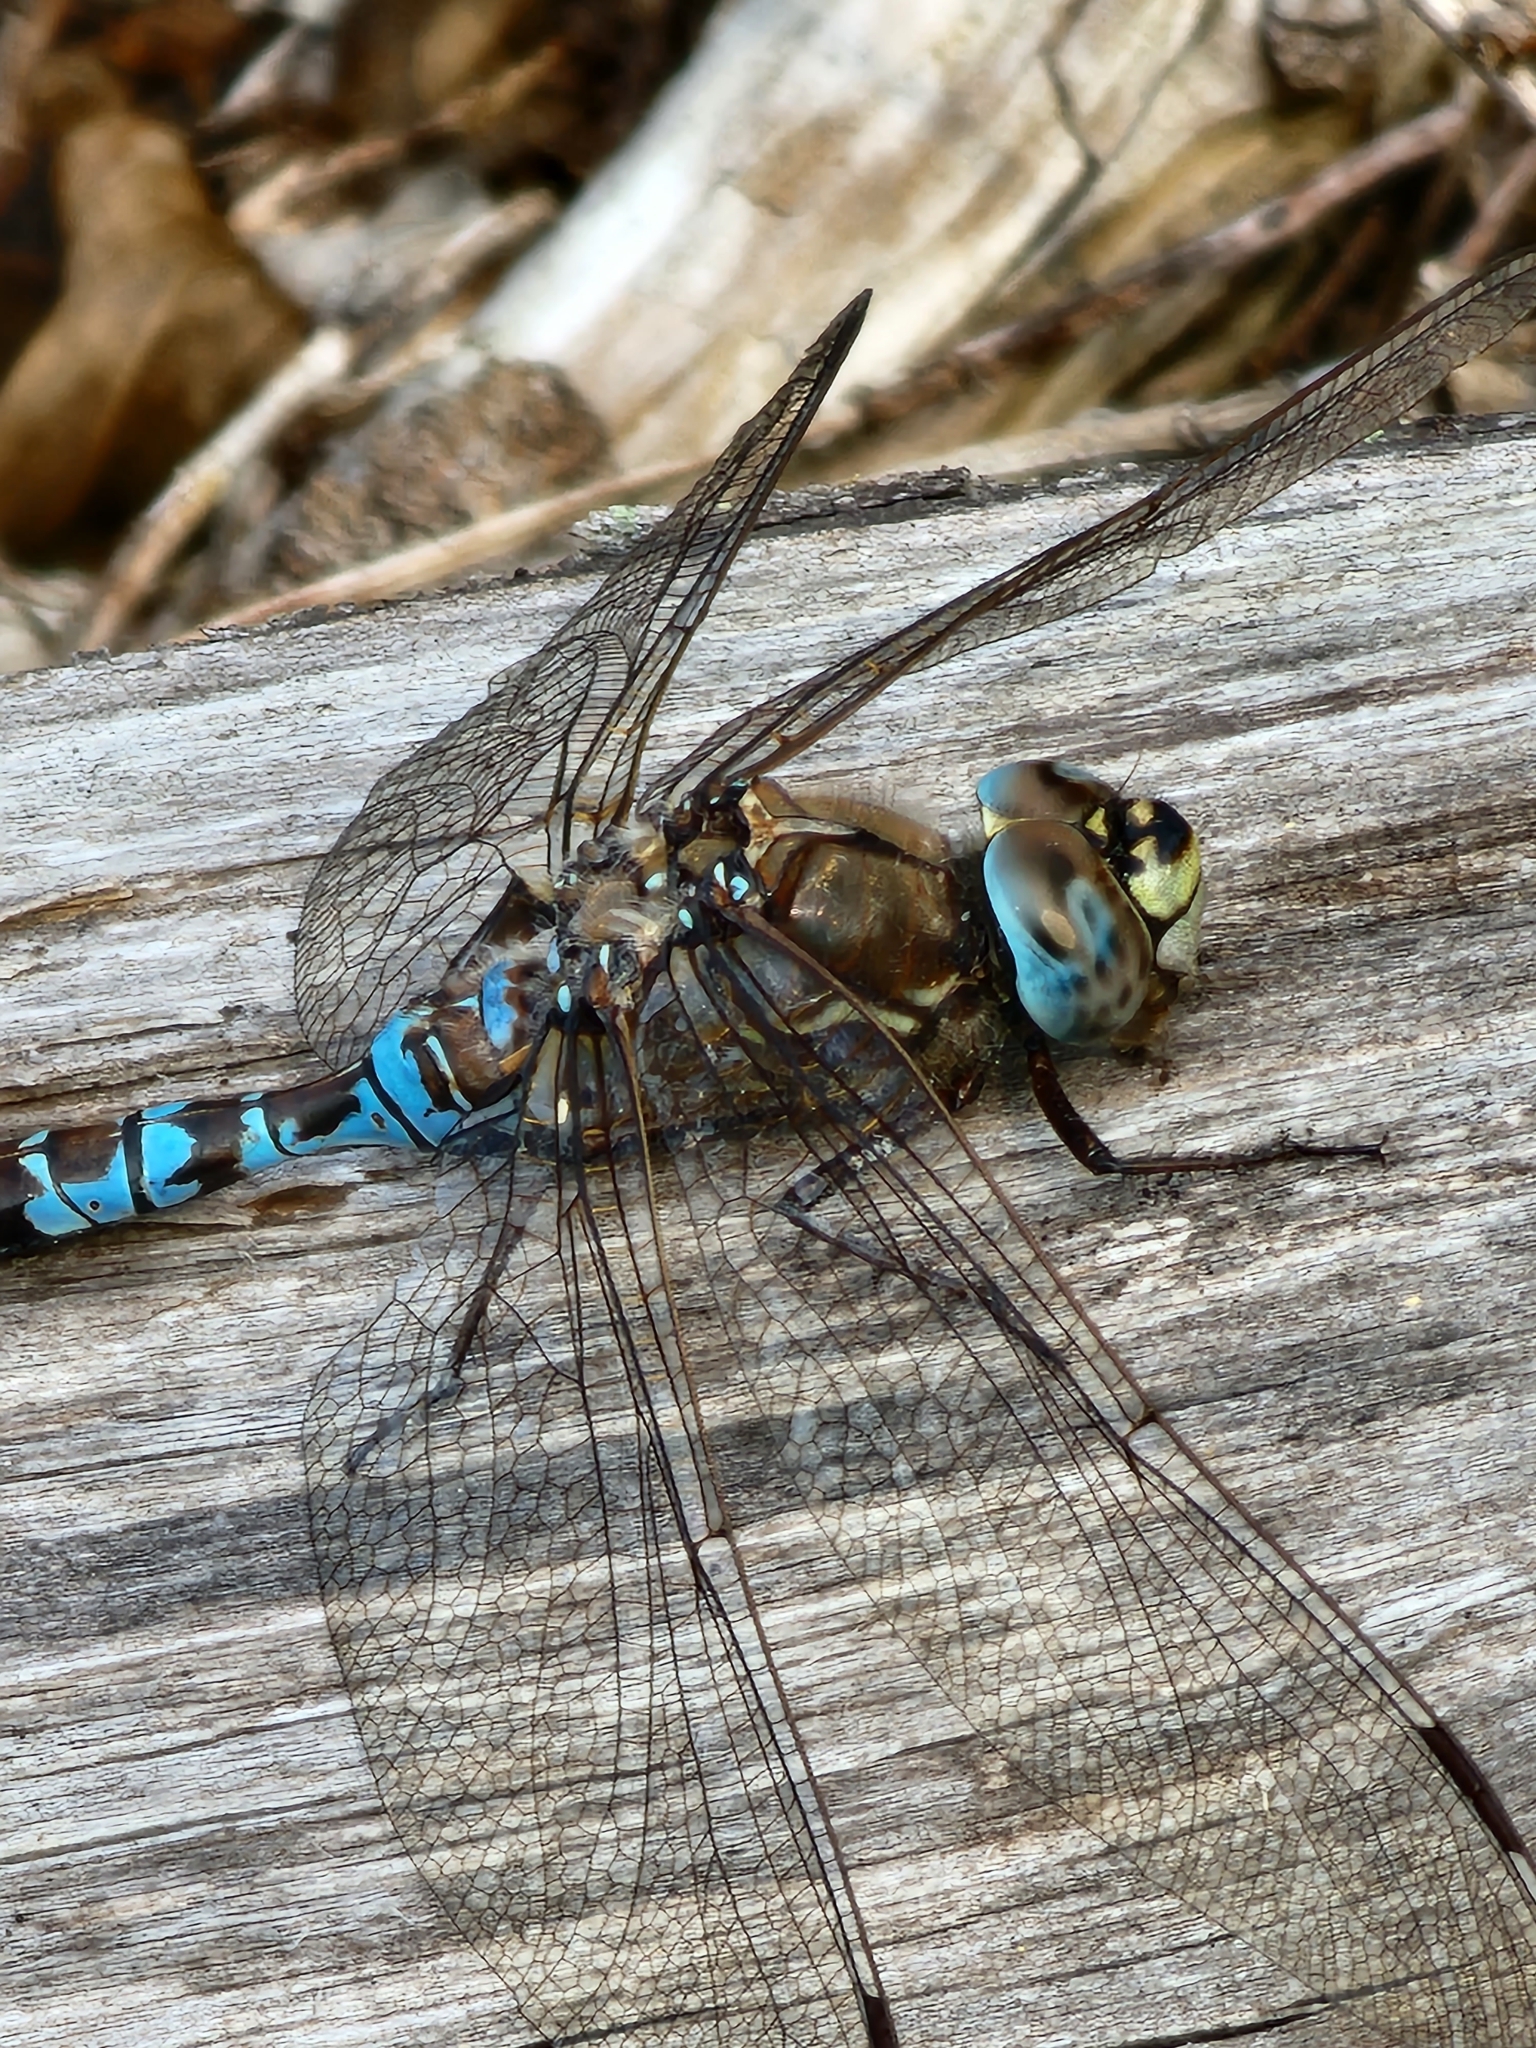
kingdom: Animalia
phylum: Arthropoda
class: Insecta
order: Odonata
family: Aeshnidae
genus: Aeshna
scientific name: Aeshna sitchensis
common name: Zigzag darner
